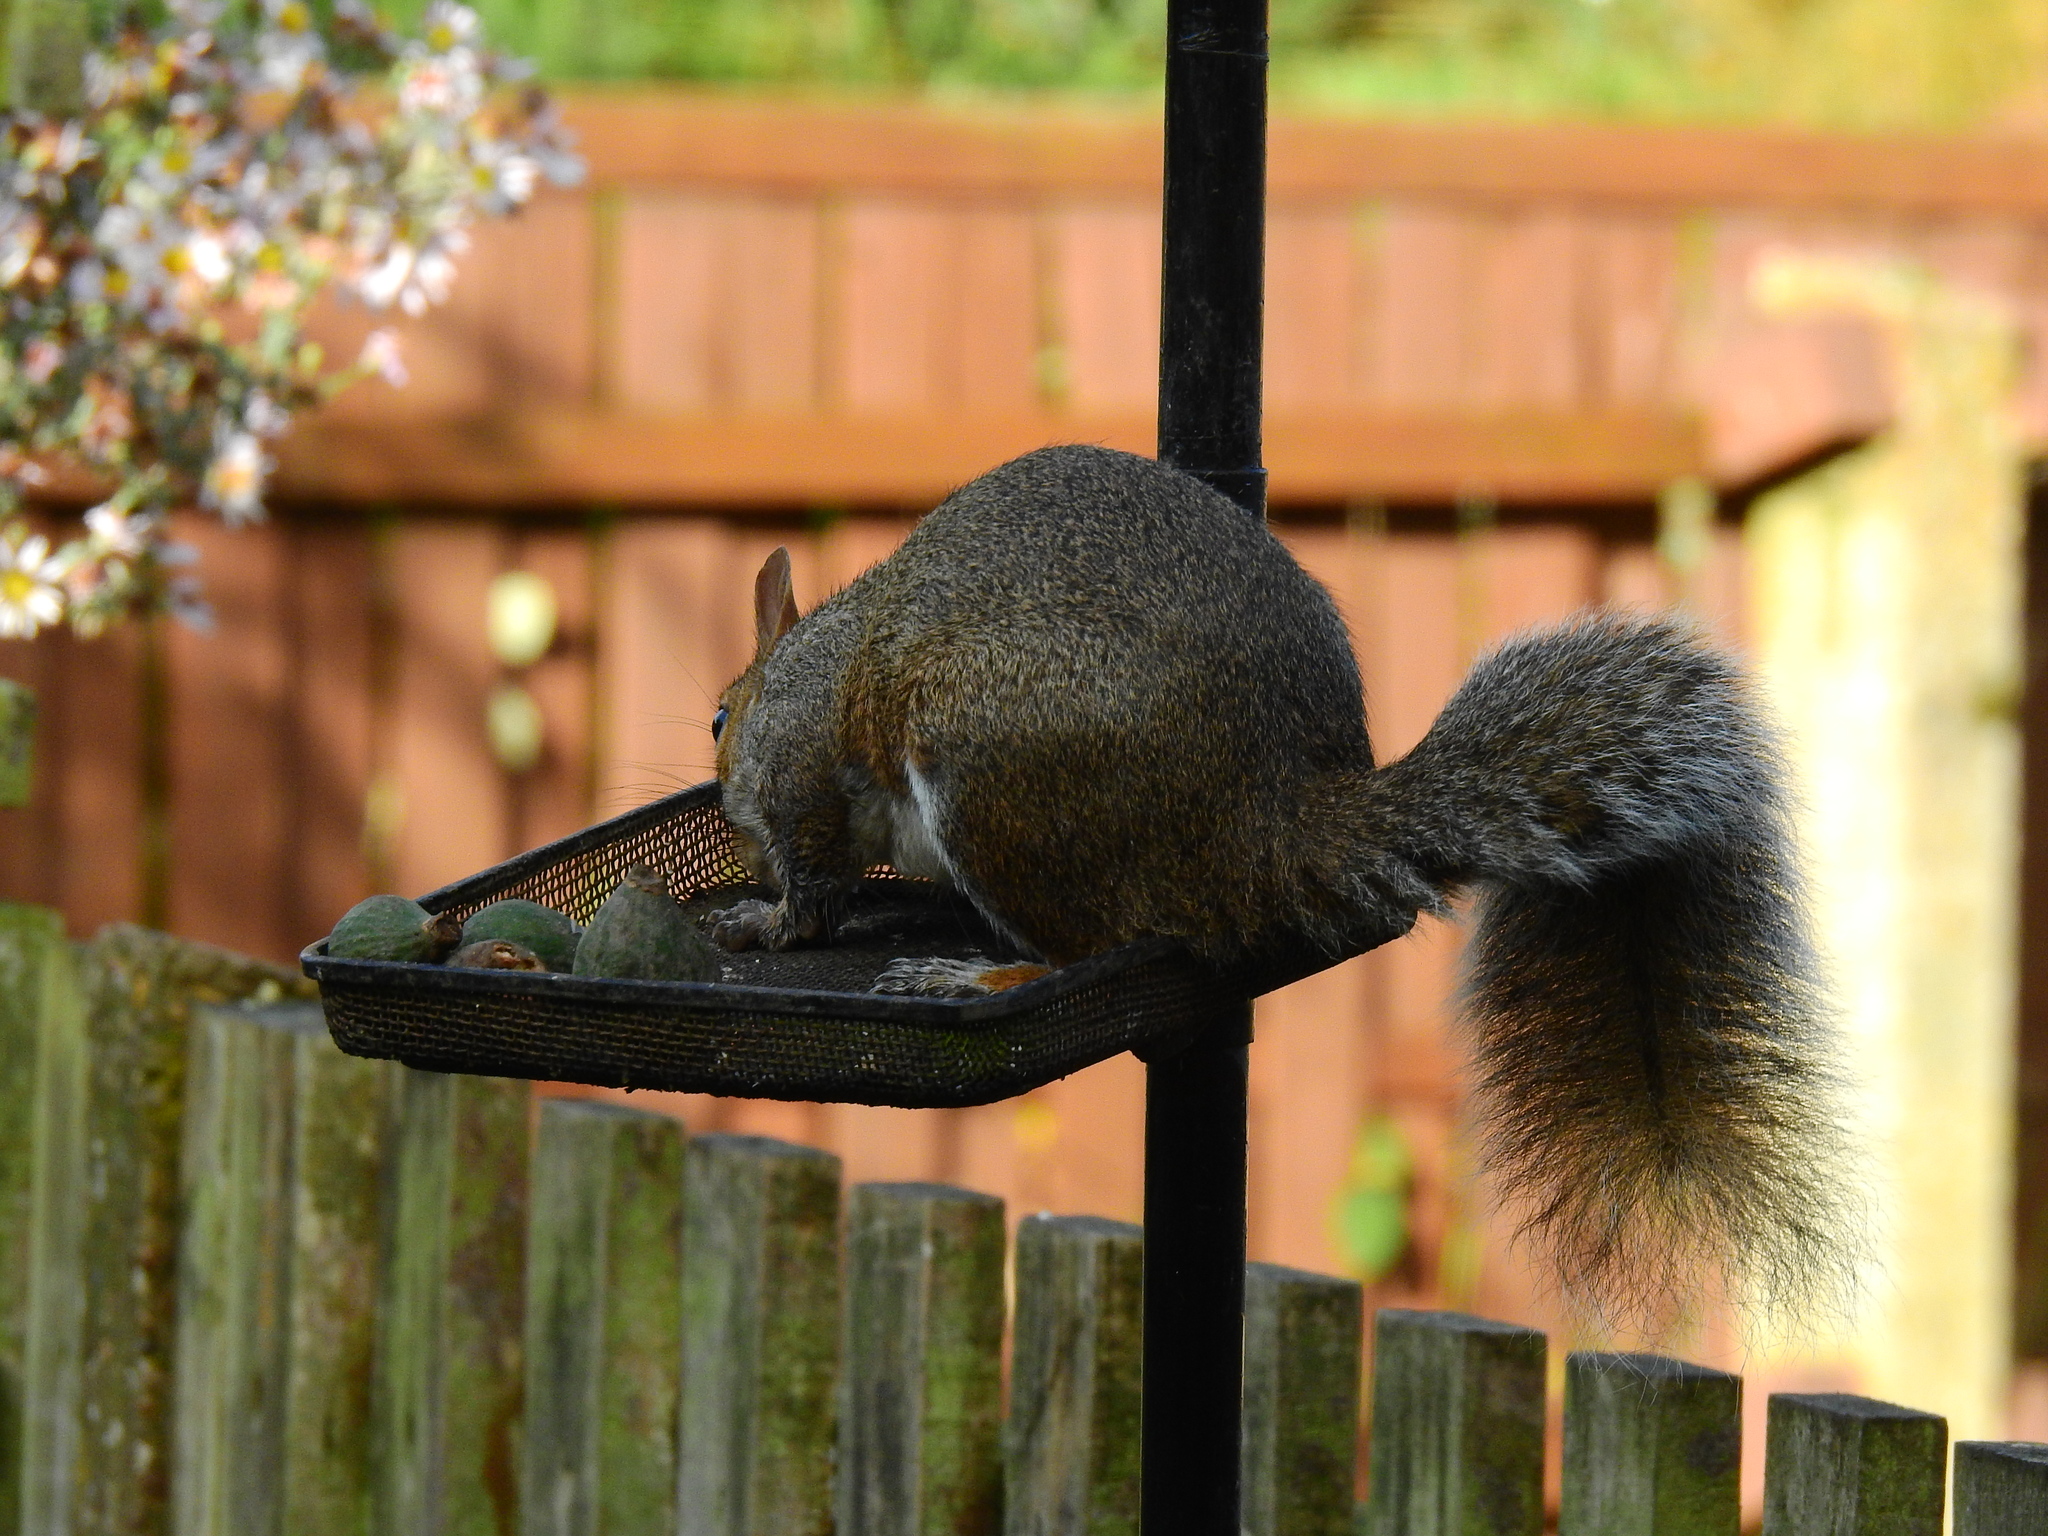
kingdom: Animalia
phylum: Chordata
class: Mammalia
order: Rodentia
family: Sciuridae
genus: Sciurus
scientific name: Sciurus carolinensis
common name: Eastern gray squirrel
